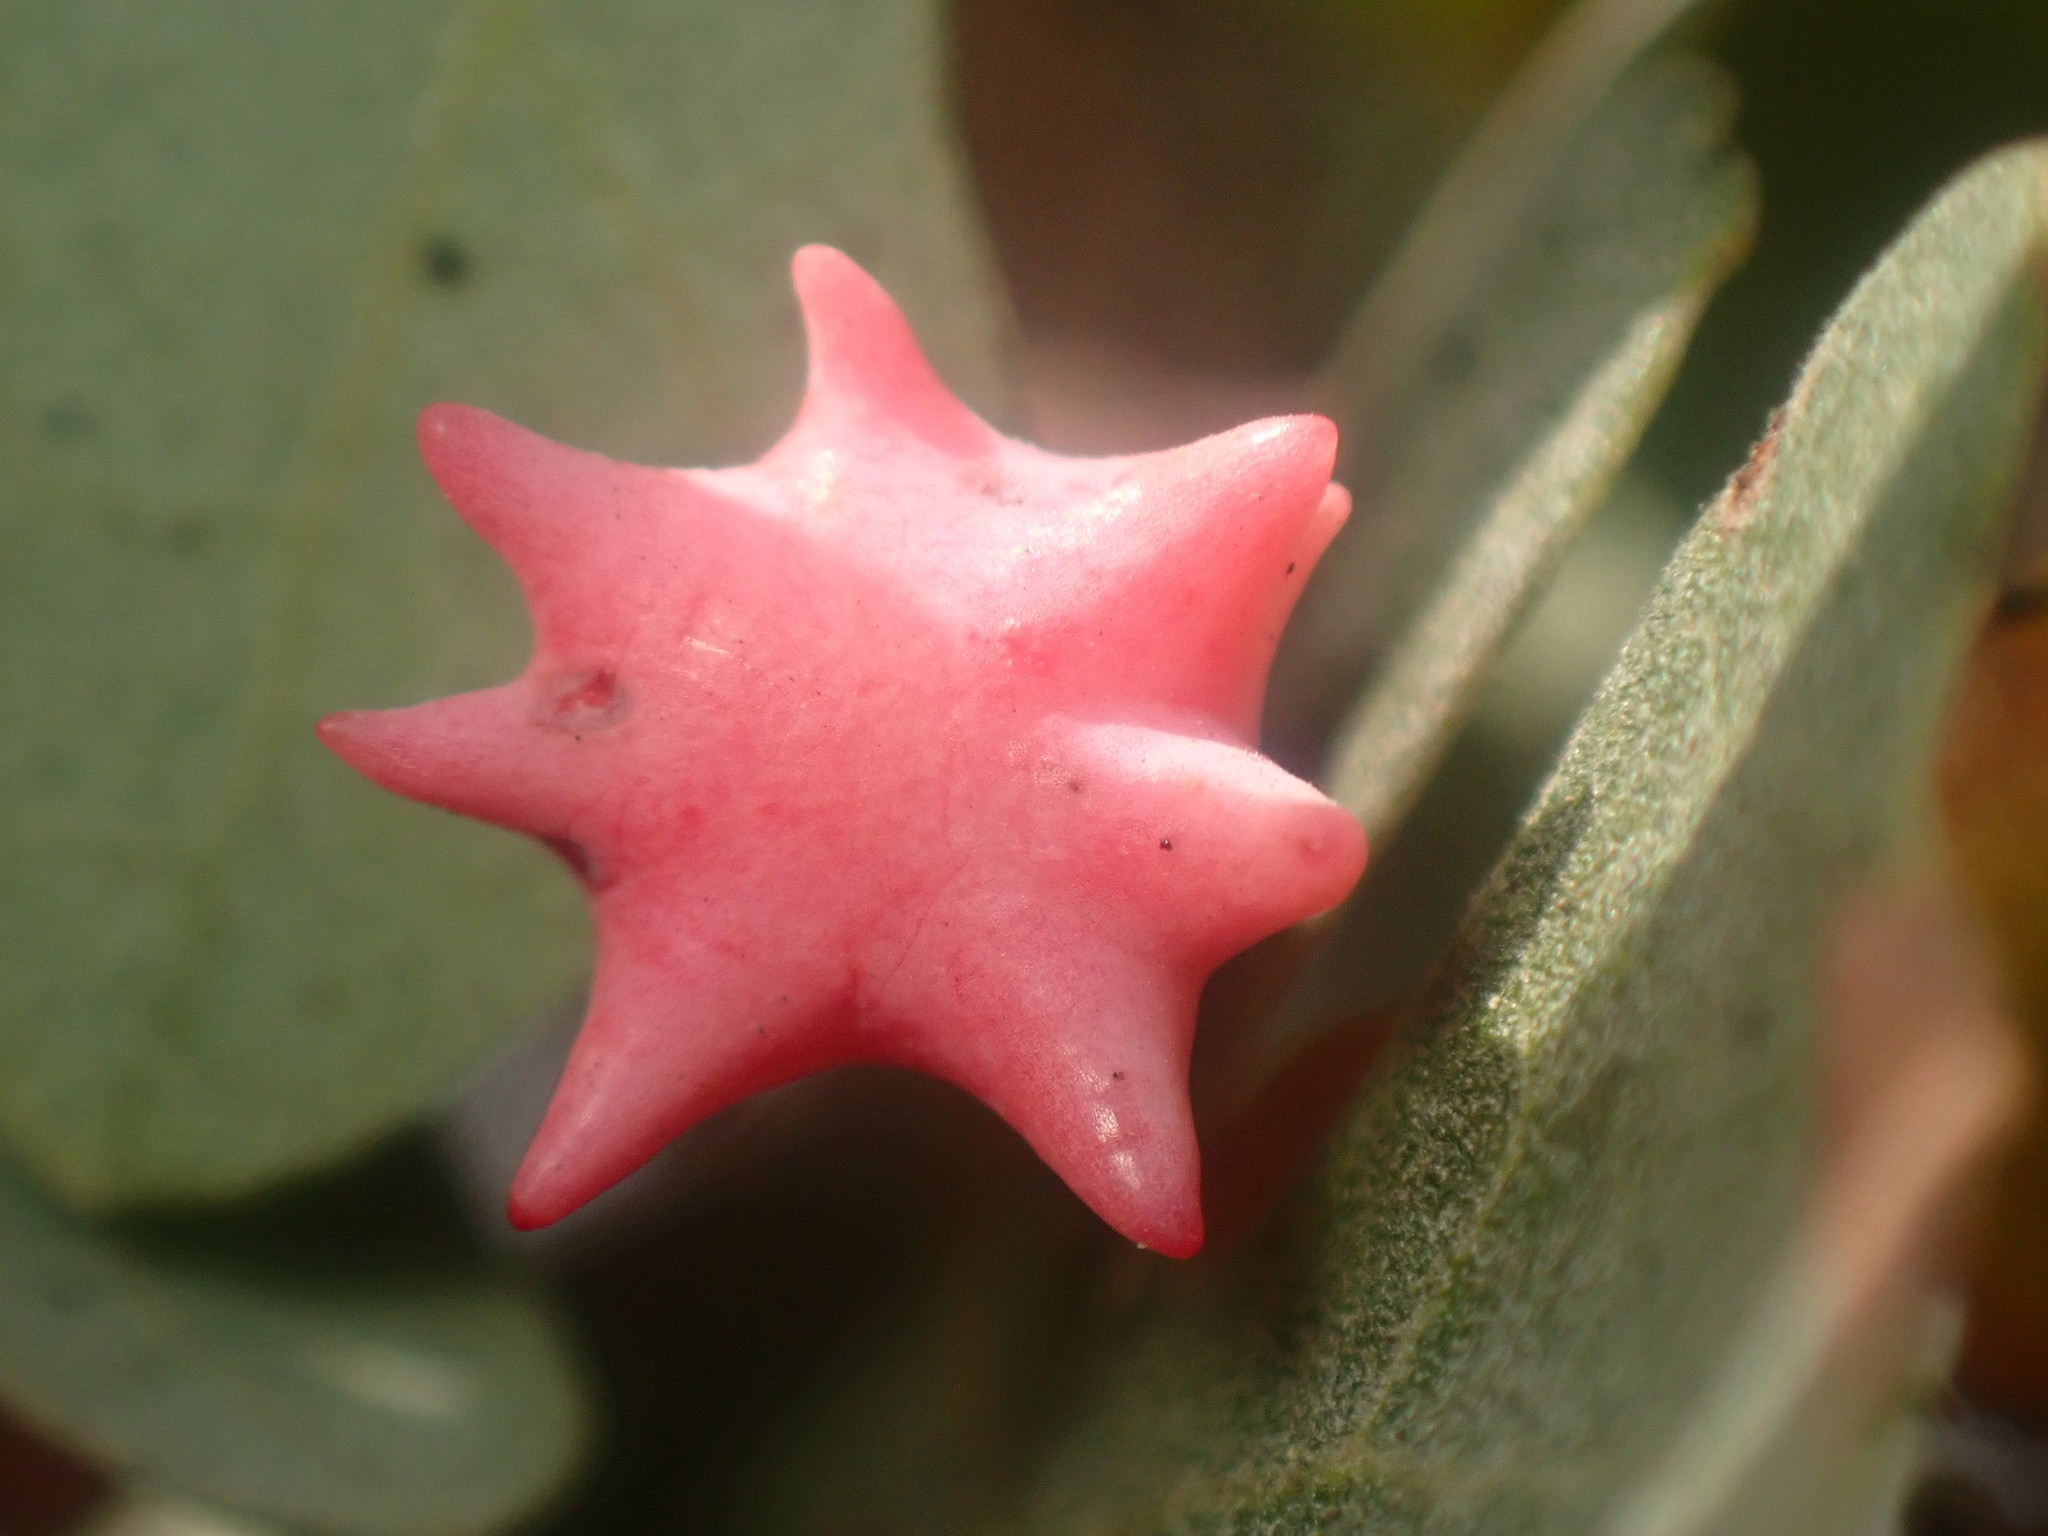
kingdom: Animalia
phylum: Arthropoda
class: Insecta
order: Hymenoptera
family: Cynipidae
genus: Cynips
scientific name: Cynips douglasi
